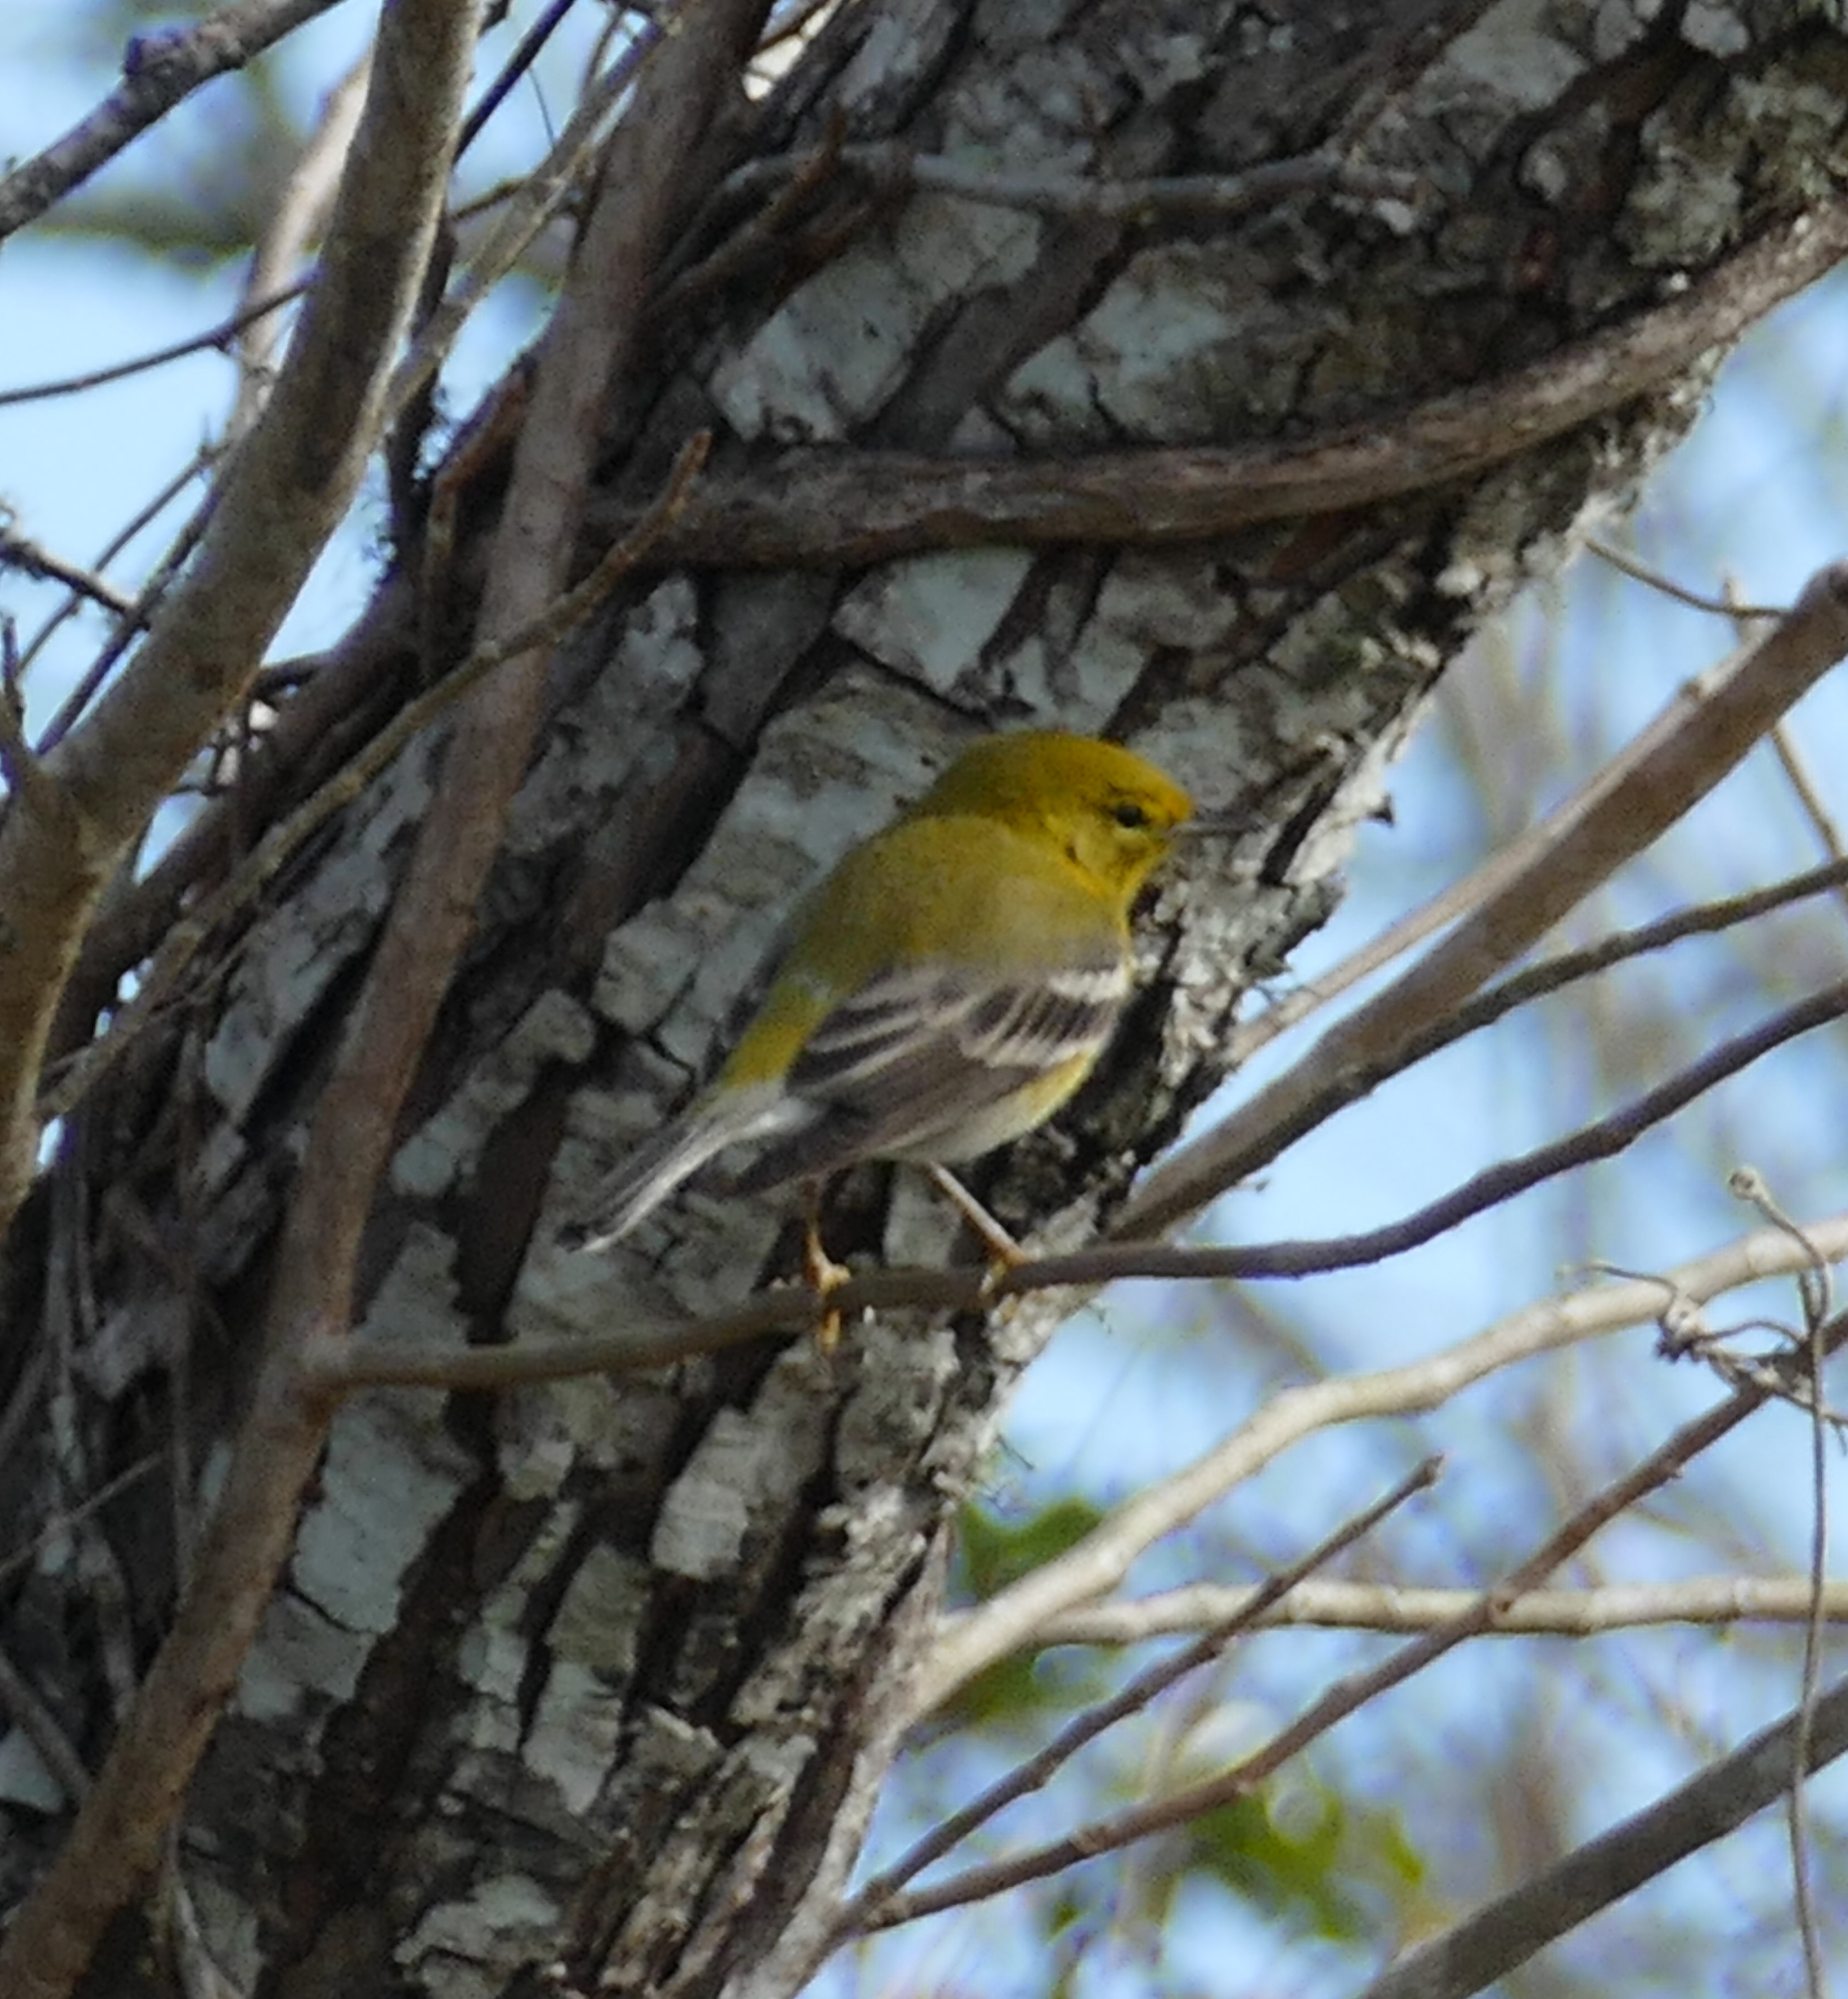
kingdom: Animalia
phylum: Chordata
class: Aves
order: Passeriformes
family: Parulidae
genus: Setophaga
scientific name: Setophaga pinus
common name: Pine warbler
